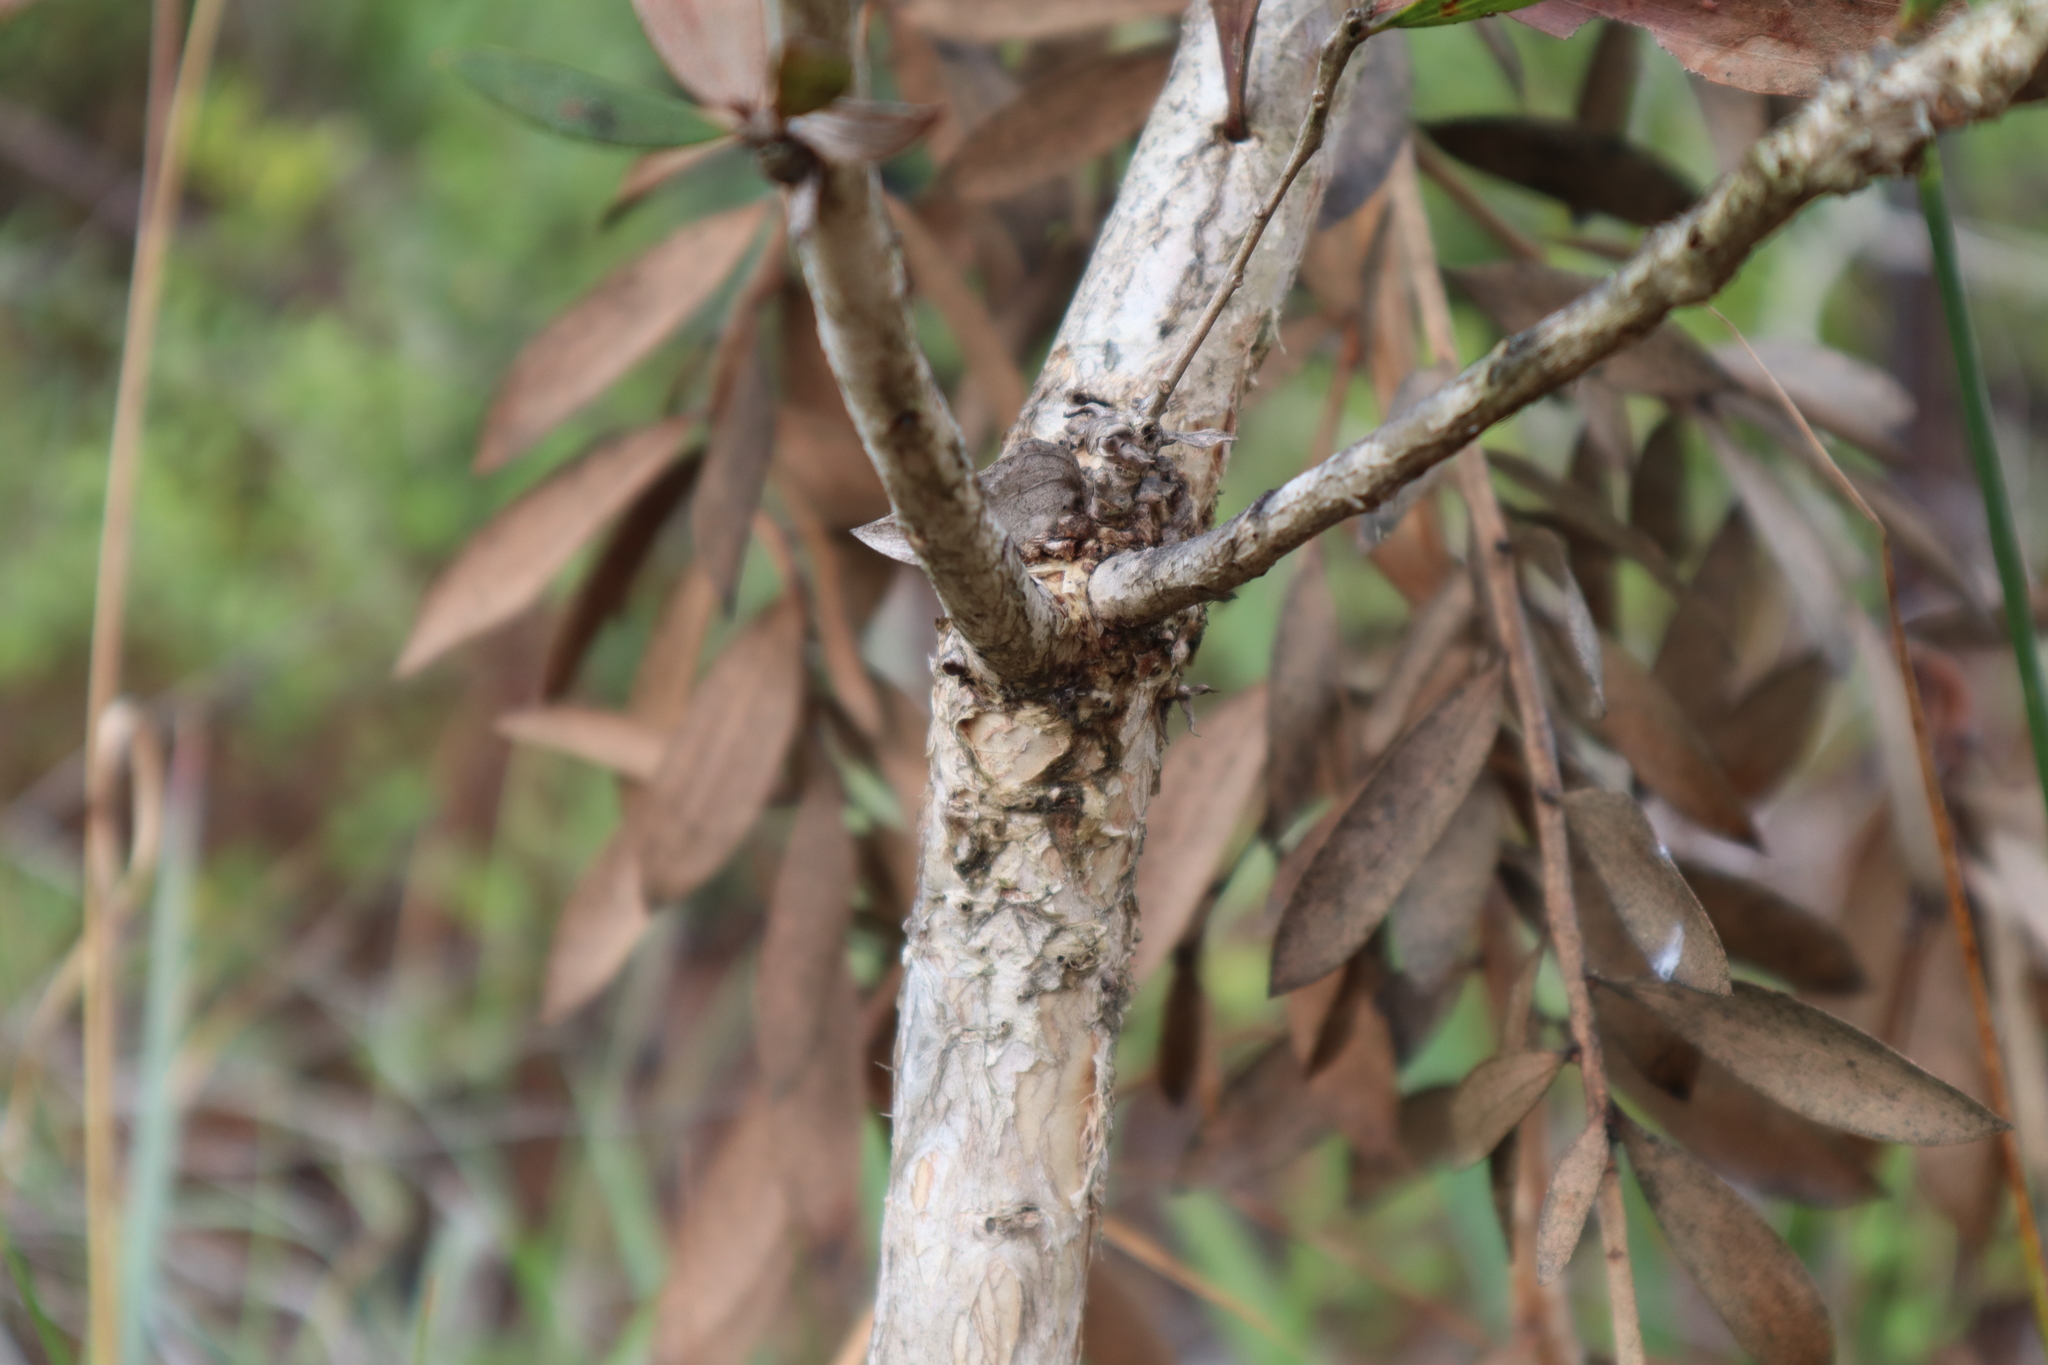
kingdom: Plantae
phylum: Tracheophyta
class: Magnoliopsida
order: Myrtales
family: Myrtaceae
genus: Melaleuca
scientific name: Melaleuca quinquenervia
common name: Punktree
